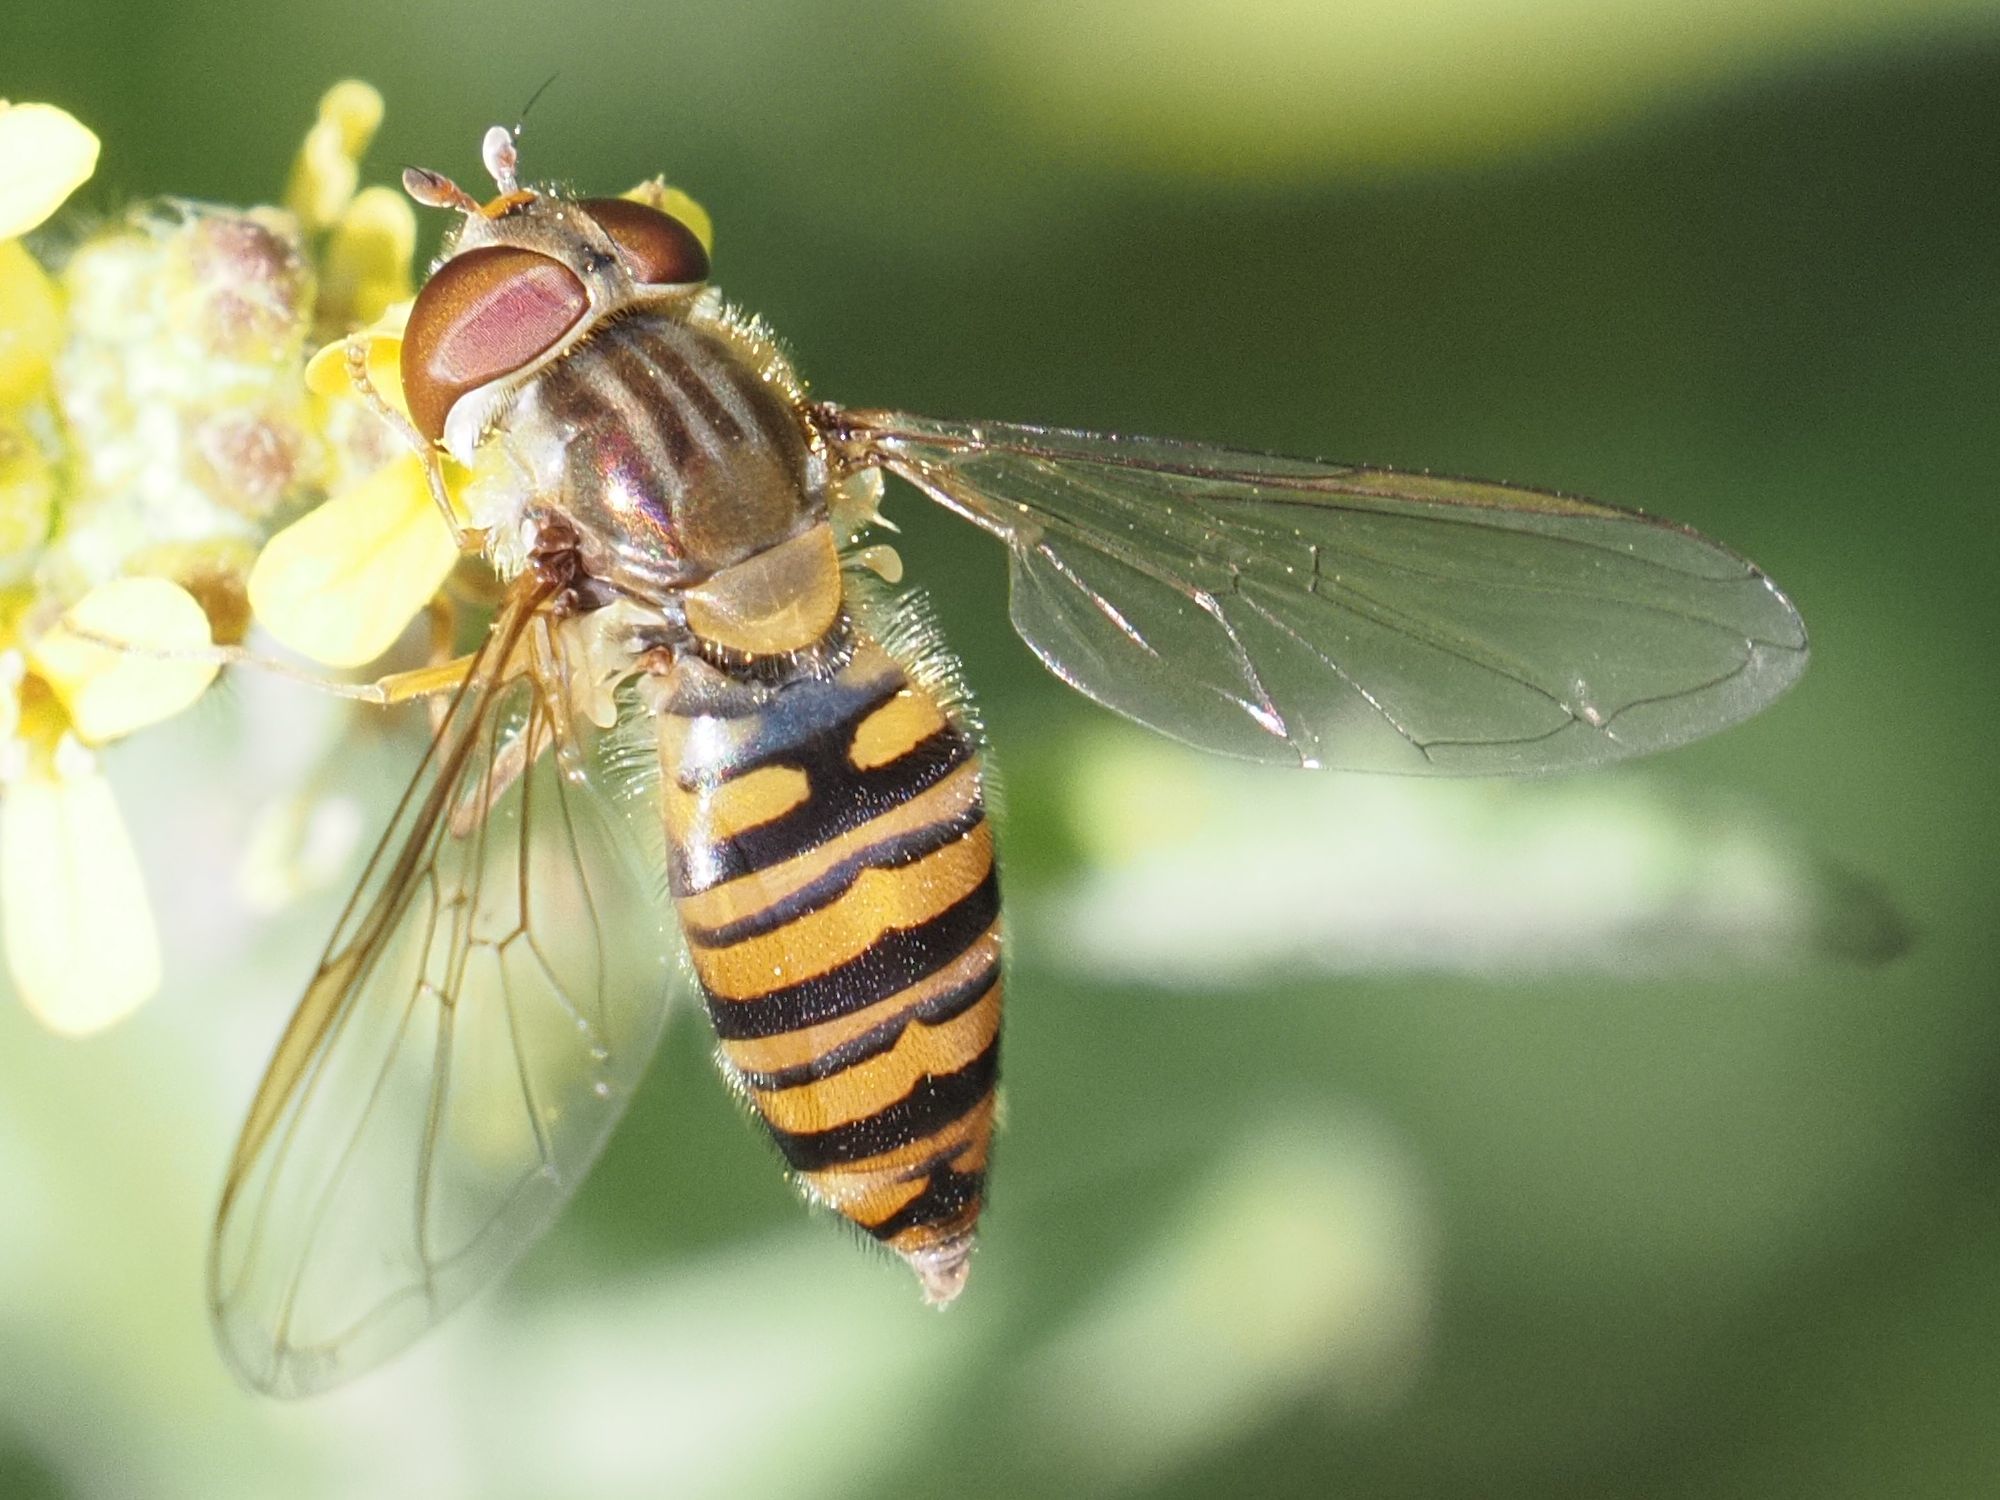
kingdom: Animalia
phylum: Arthropoda
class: Insecta
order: Diptera
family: Syrphidae
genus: Episyrphus
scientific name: Episyrphus balteatus
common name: Marmalade hoverfly
